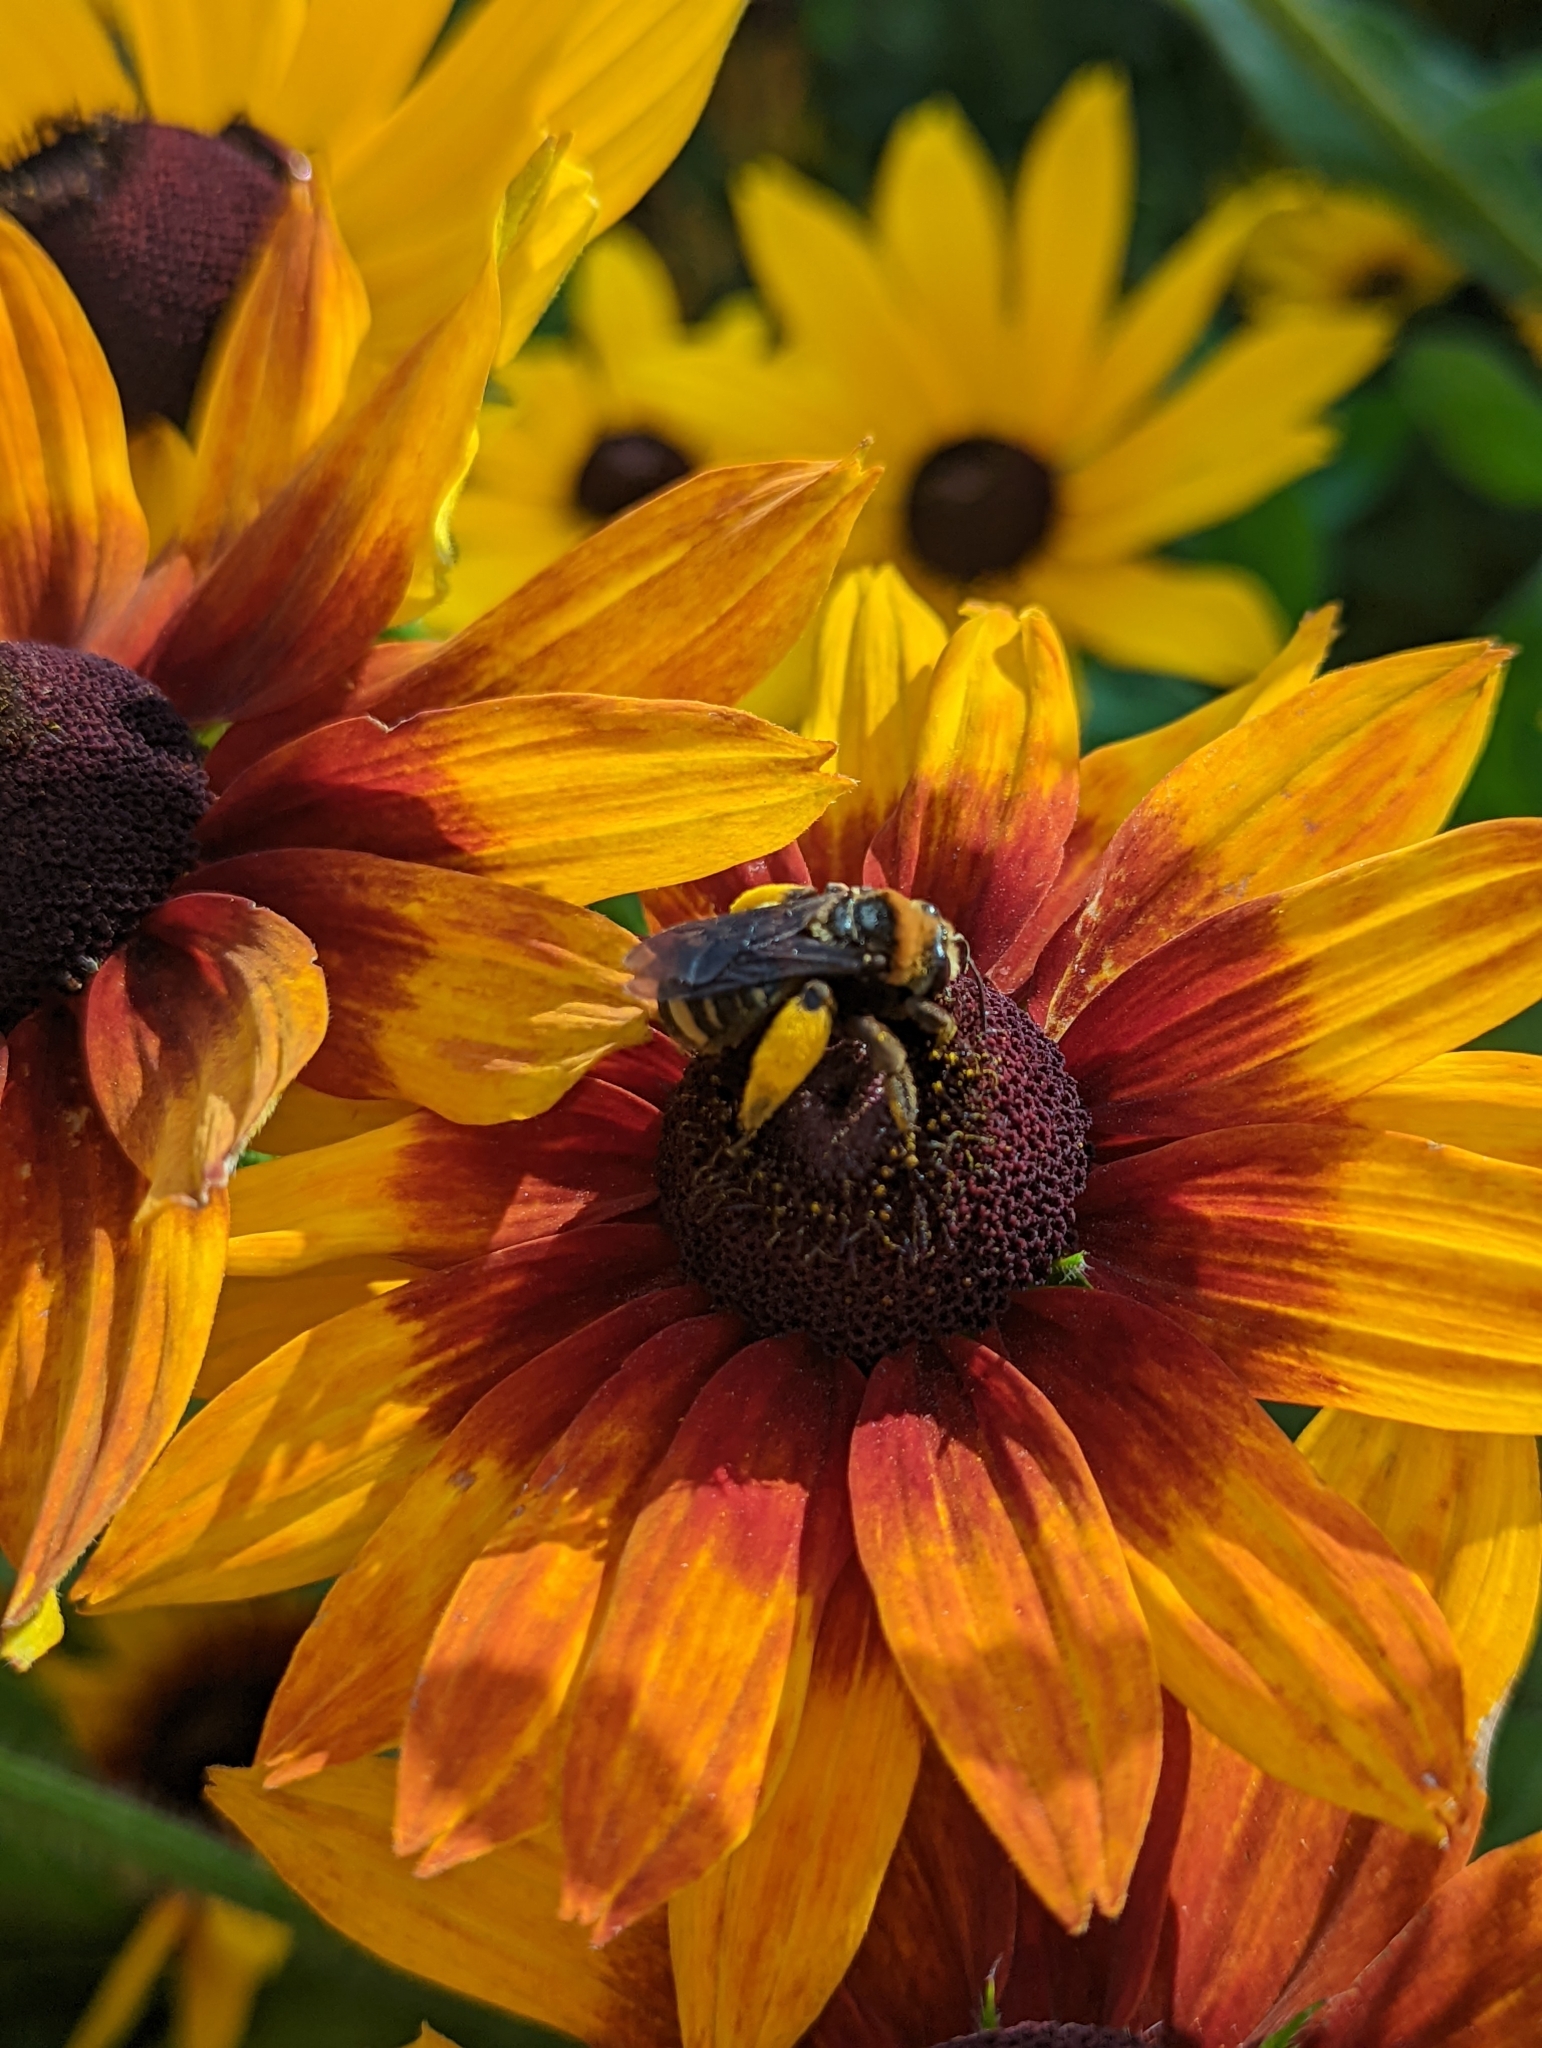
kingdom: Animalia
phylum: Arthropoda
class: Insecta
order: Hymenoptera
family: Apidae
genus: Svastra
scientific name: Svastra obliqua
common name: Oblique longhorn
